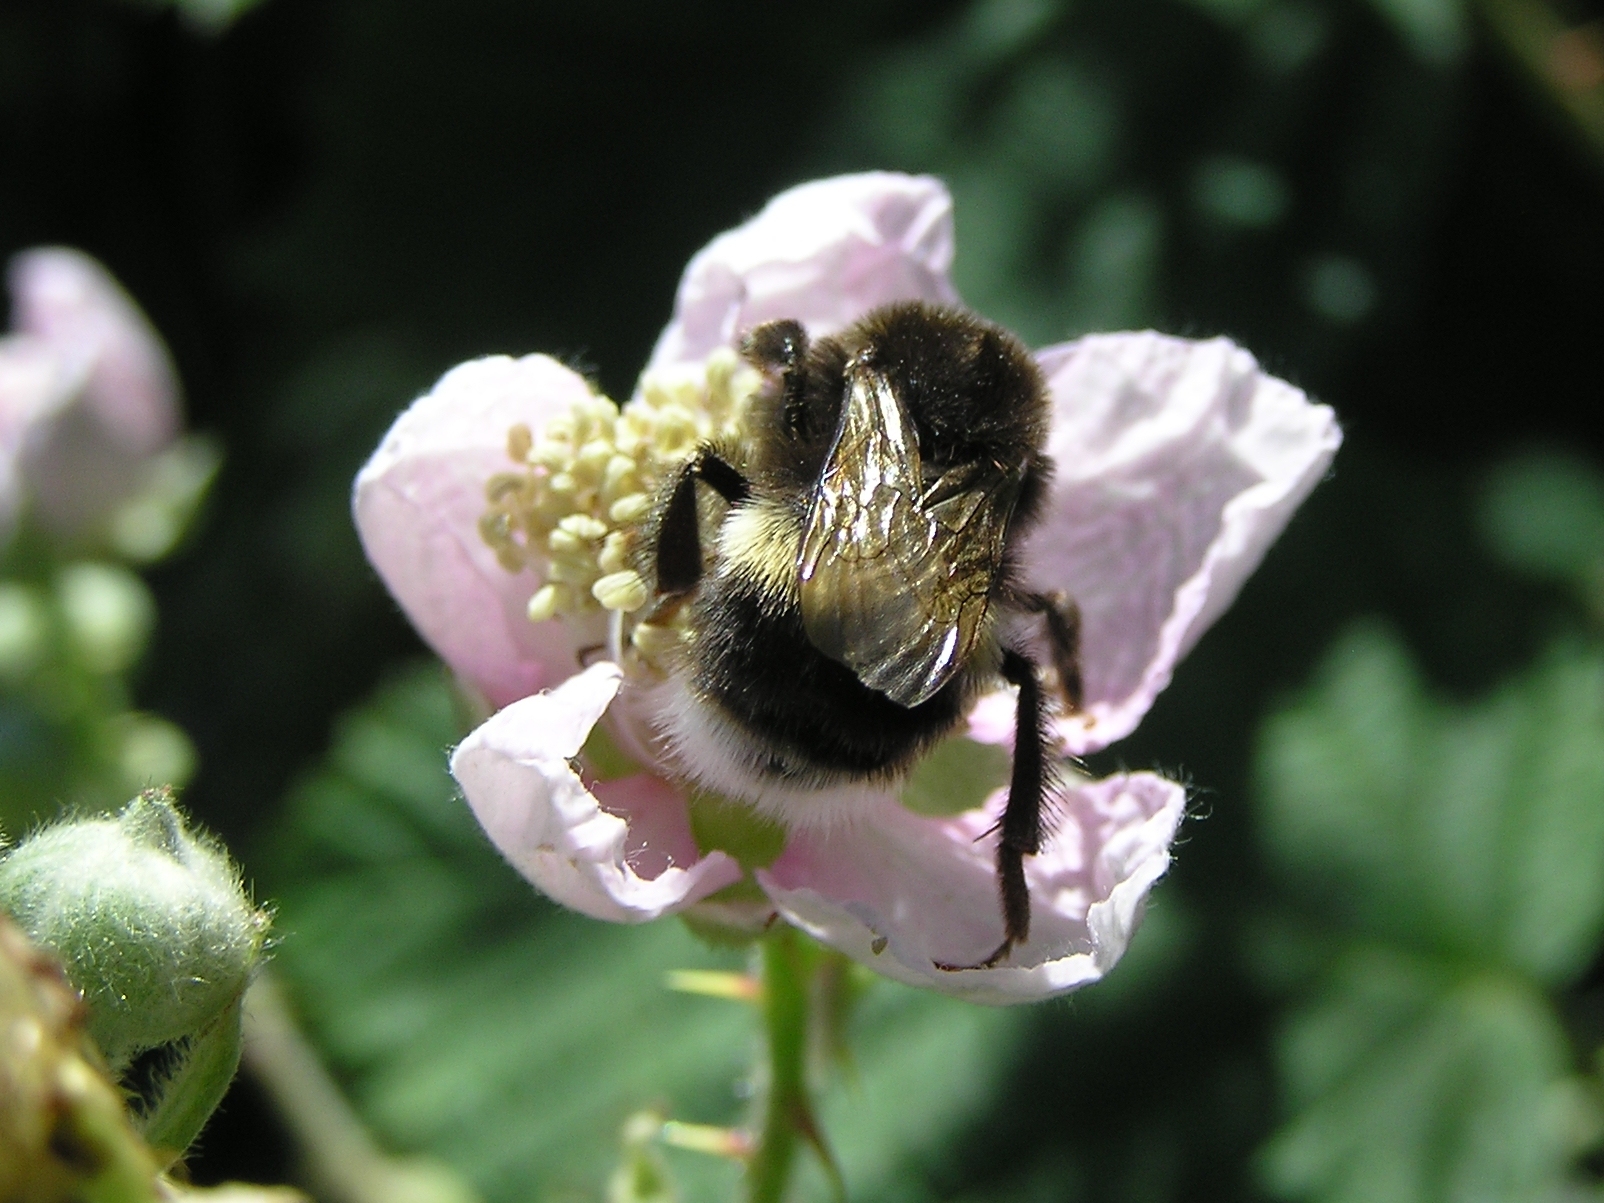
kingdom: Animalia
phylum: Arthropoda
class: Insecta
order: Hymenoptera
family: Apidae
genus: Bombus
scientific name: Bombus terrestris
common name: Buff-tailed bumblebee
